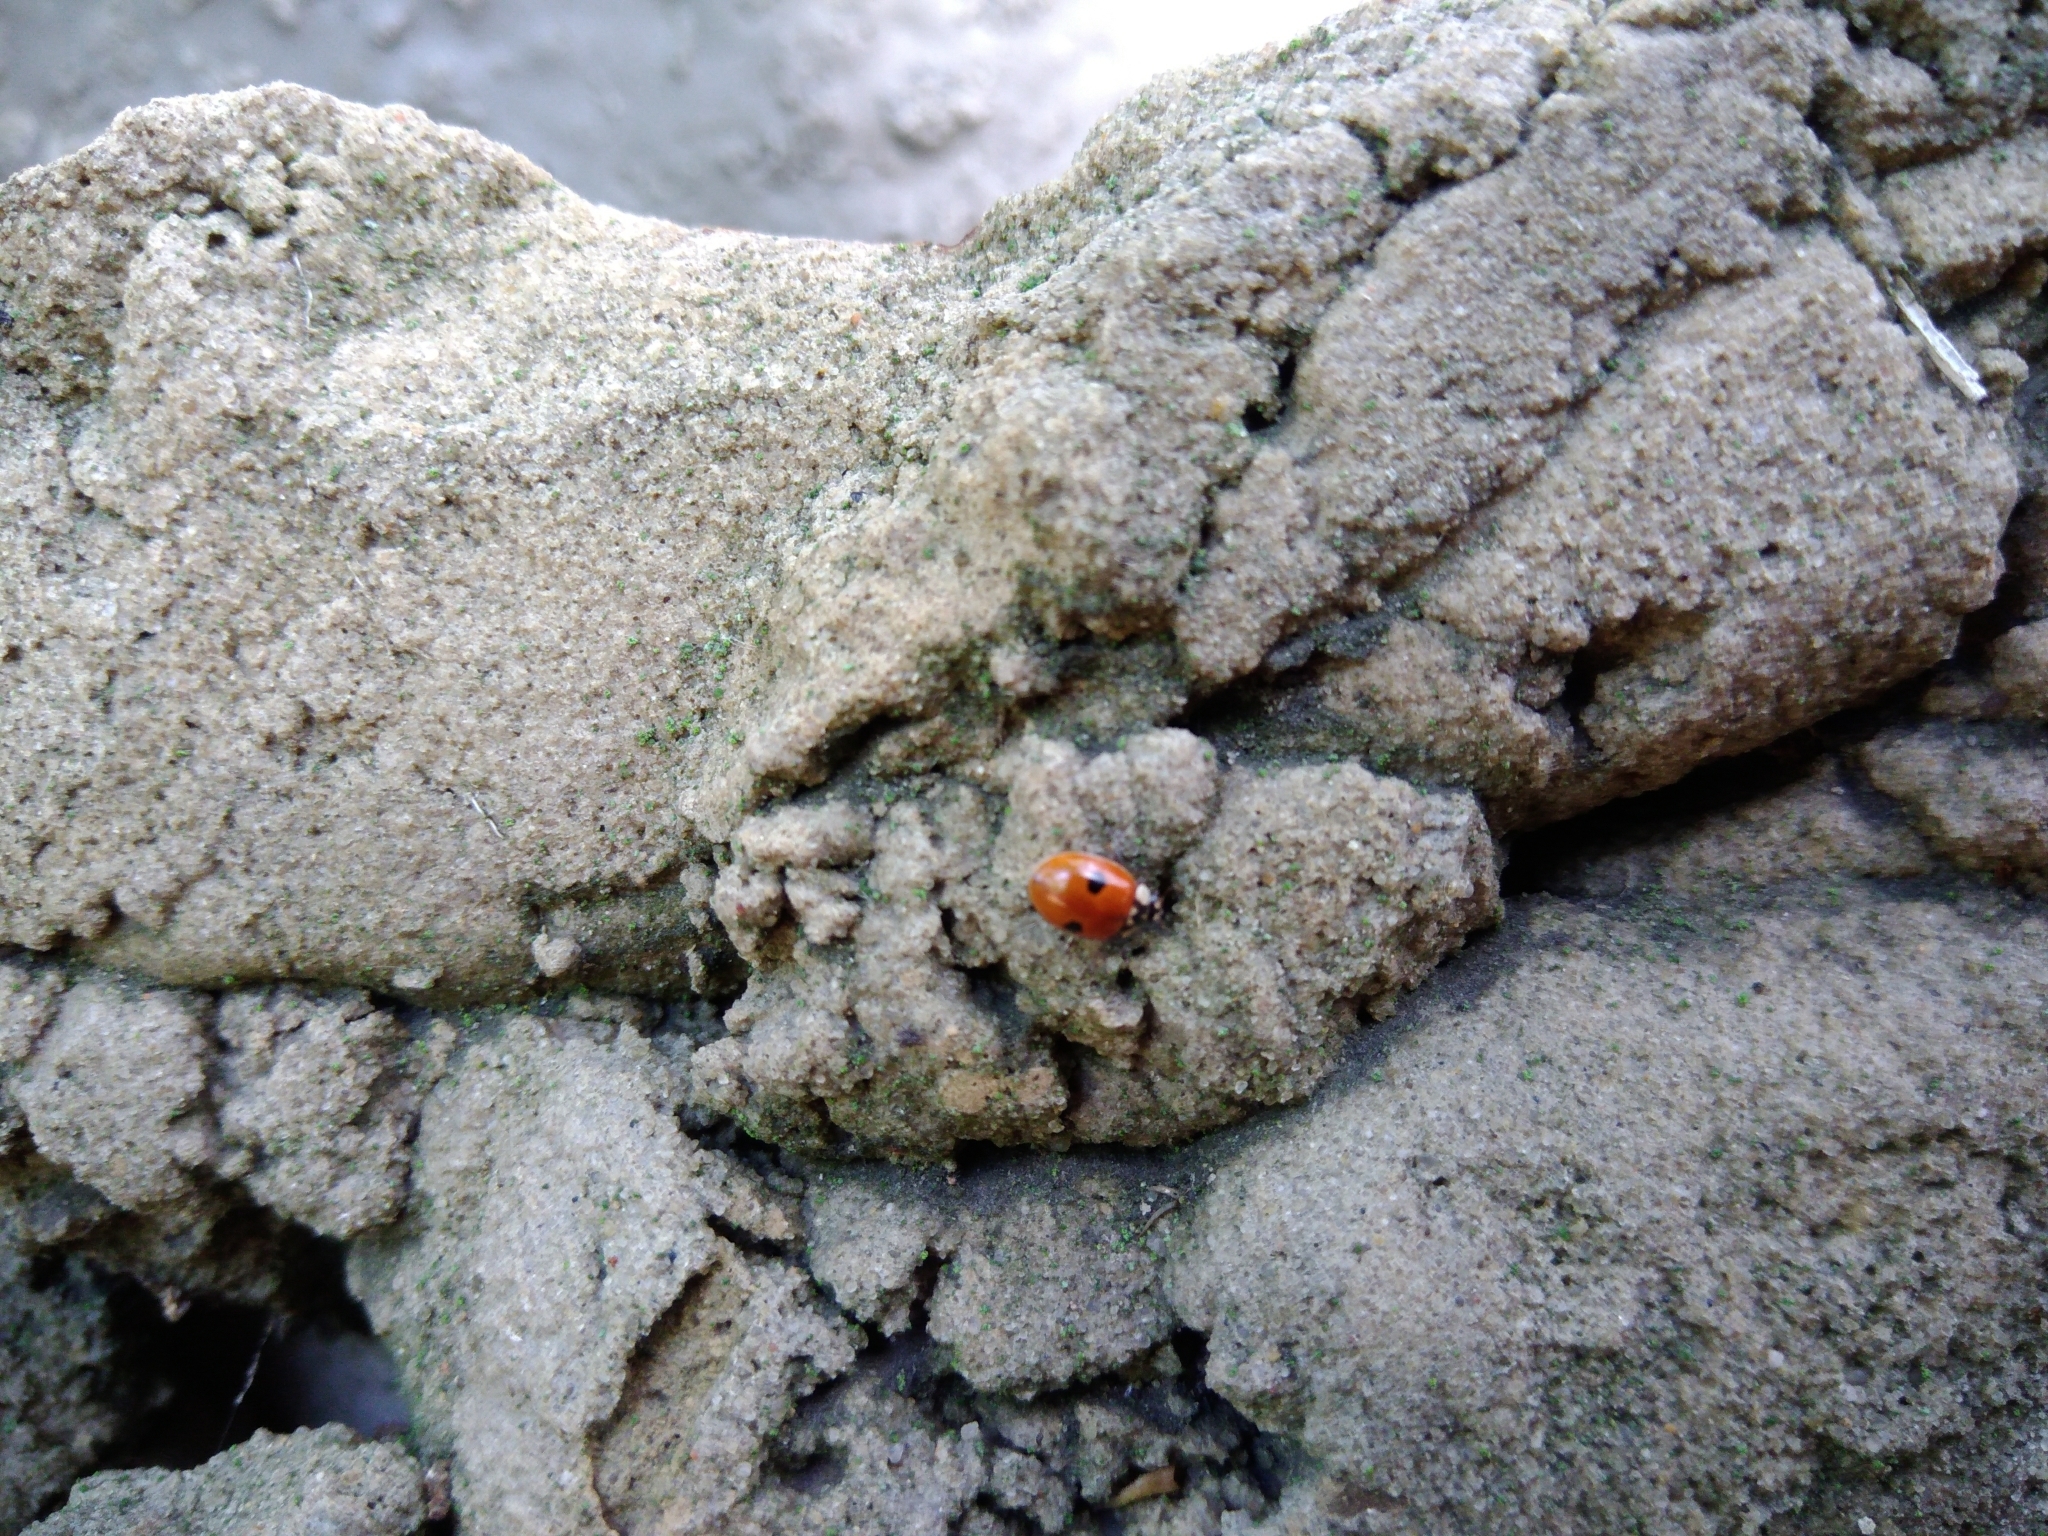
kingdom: Animalia
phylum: Arthropoda
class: Insecta
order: Coleoptera
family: Coccinellidae
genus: Adalia
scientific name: Adalia bipunctata
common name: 2-spot ladybird
